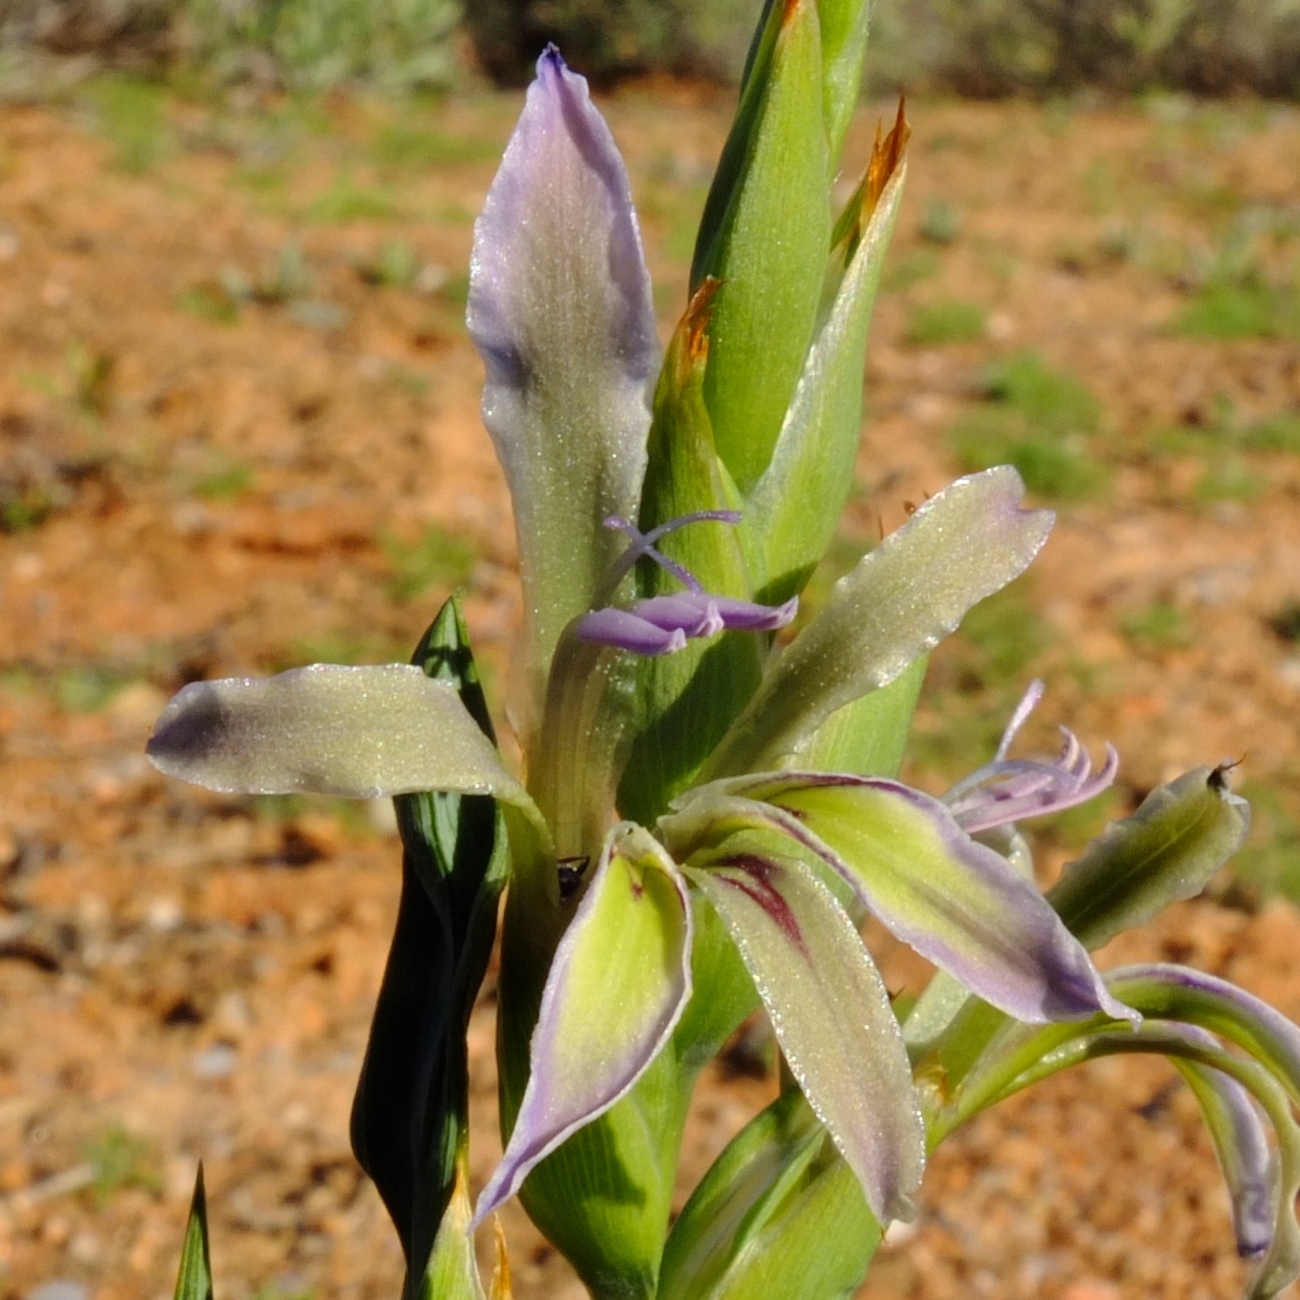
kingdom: Plantae
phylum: Tracheophyta
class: Liliopsida
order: Asparagales
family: Iridaceae
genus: Babiana
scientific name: Babiana planifolia
